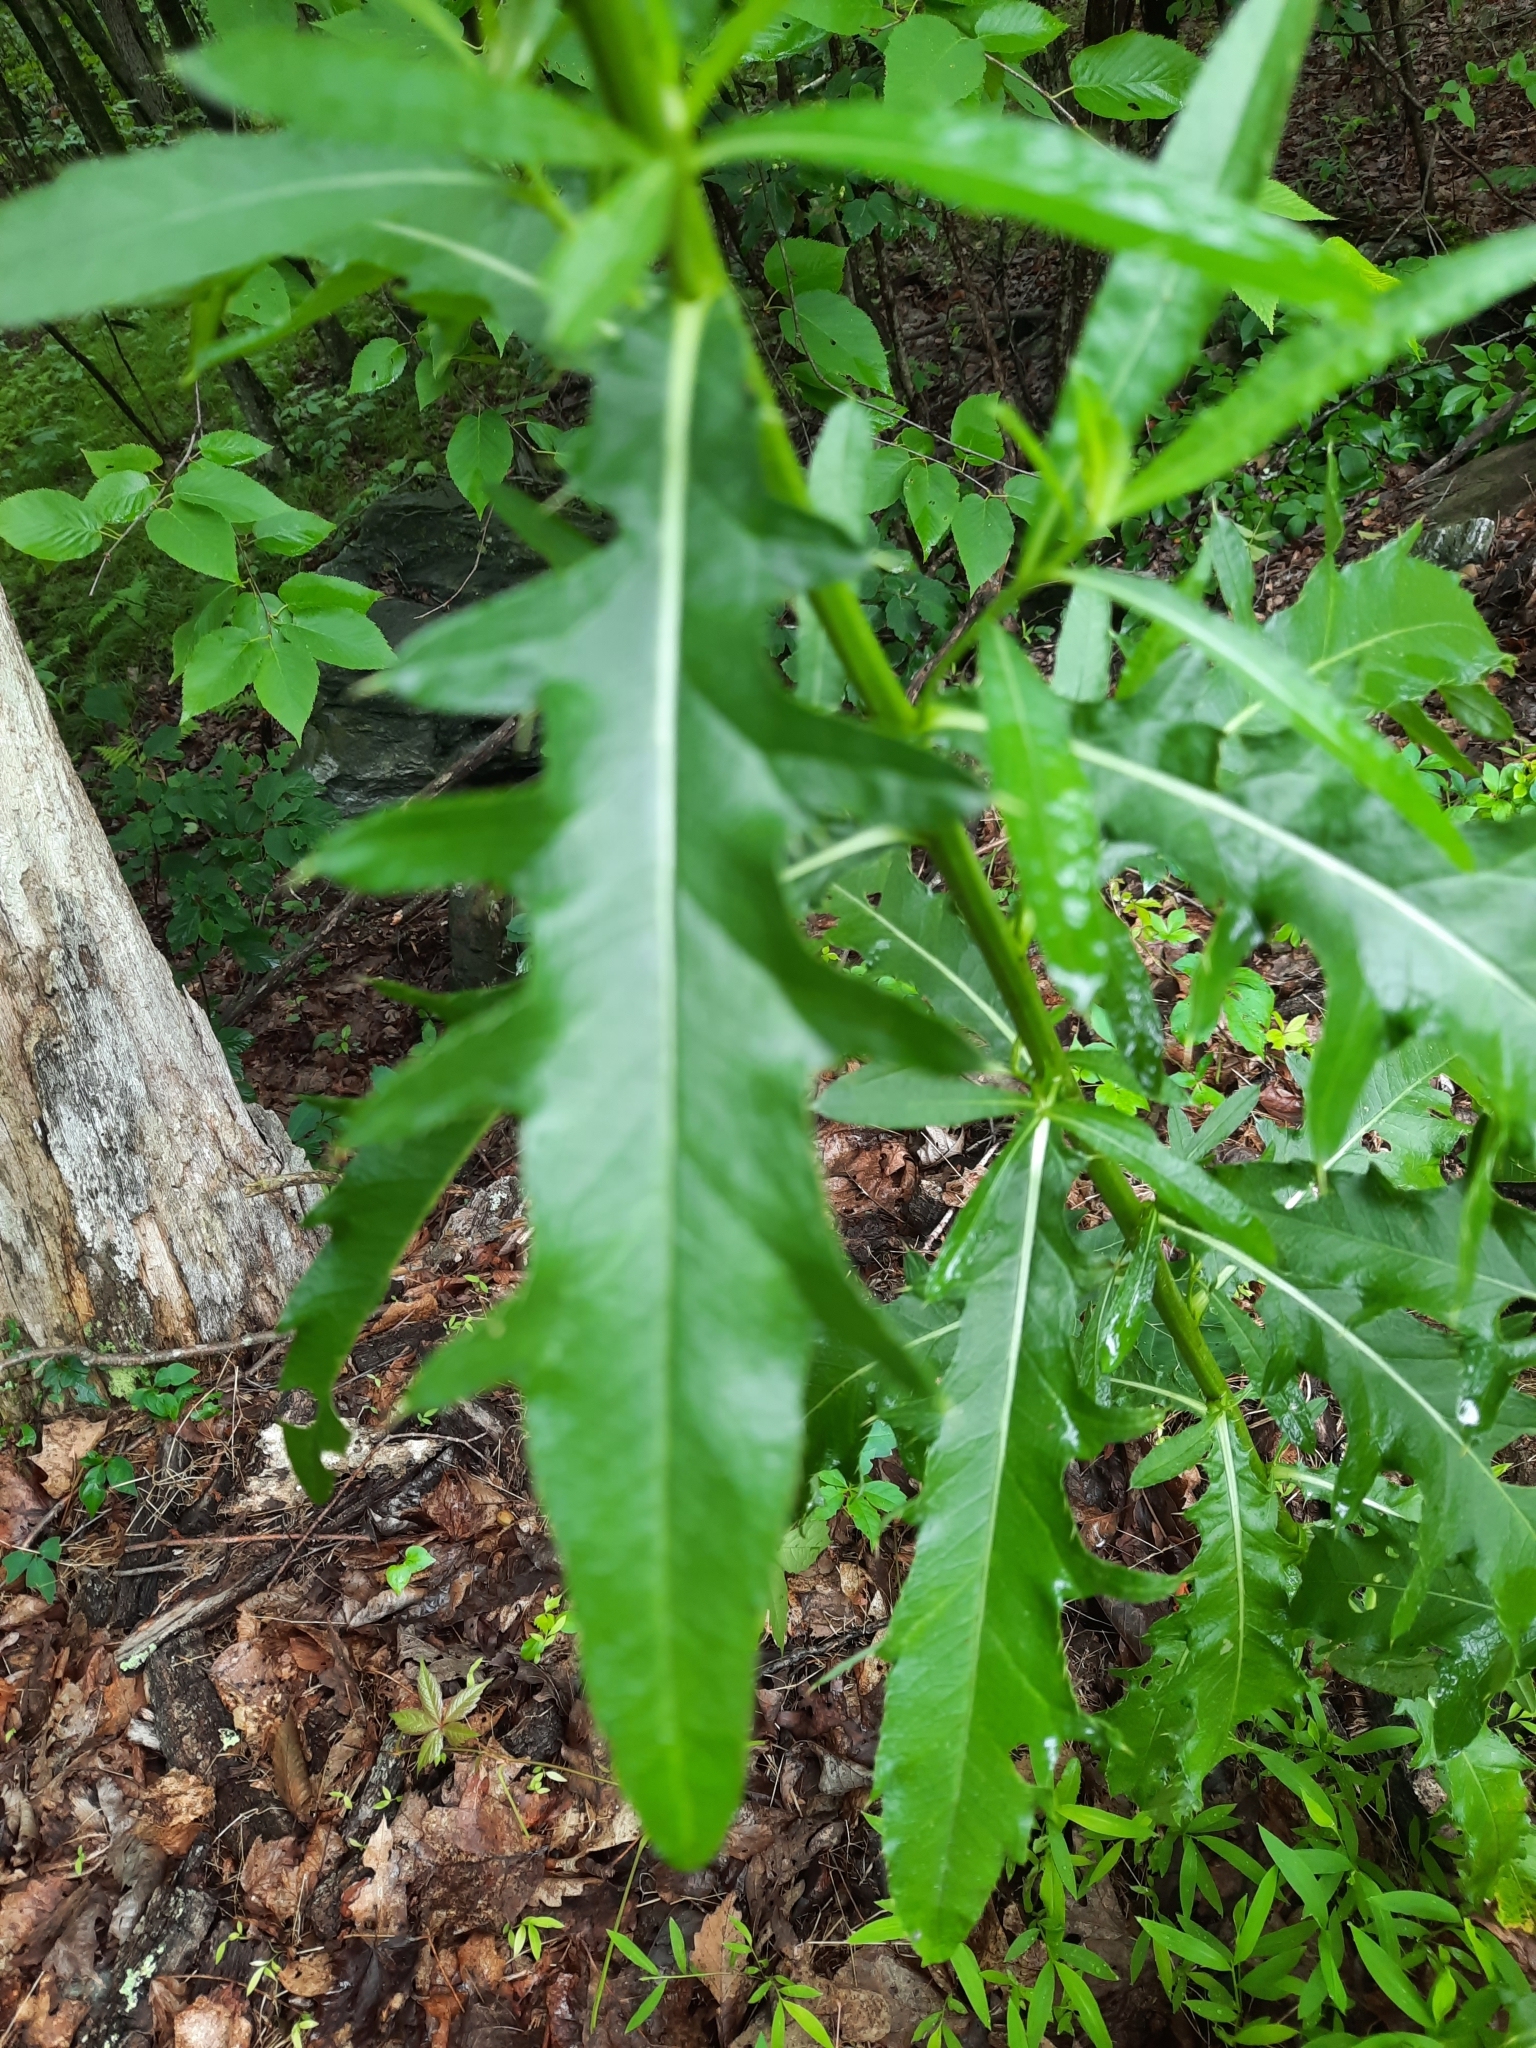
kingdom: Plantae
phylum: Tracheophyta
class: Magnoliopsida
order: Asterales
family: Asteraceae
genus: Cirsium
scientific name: Cirsium arvense
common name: Creeping thistle
